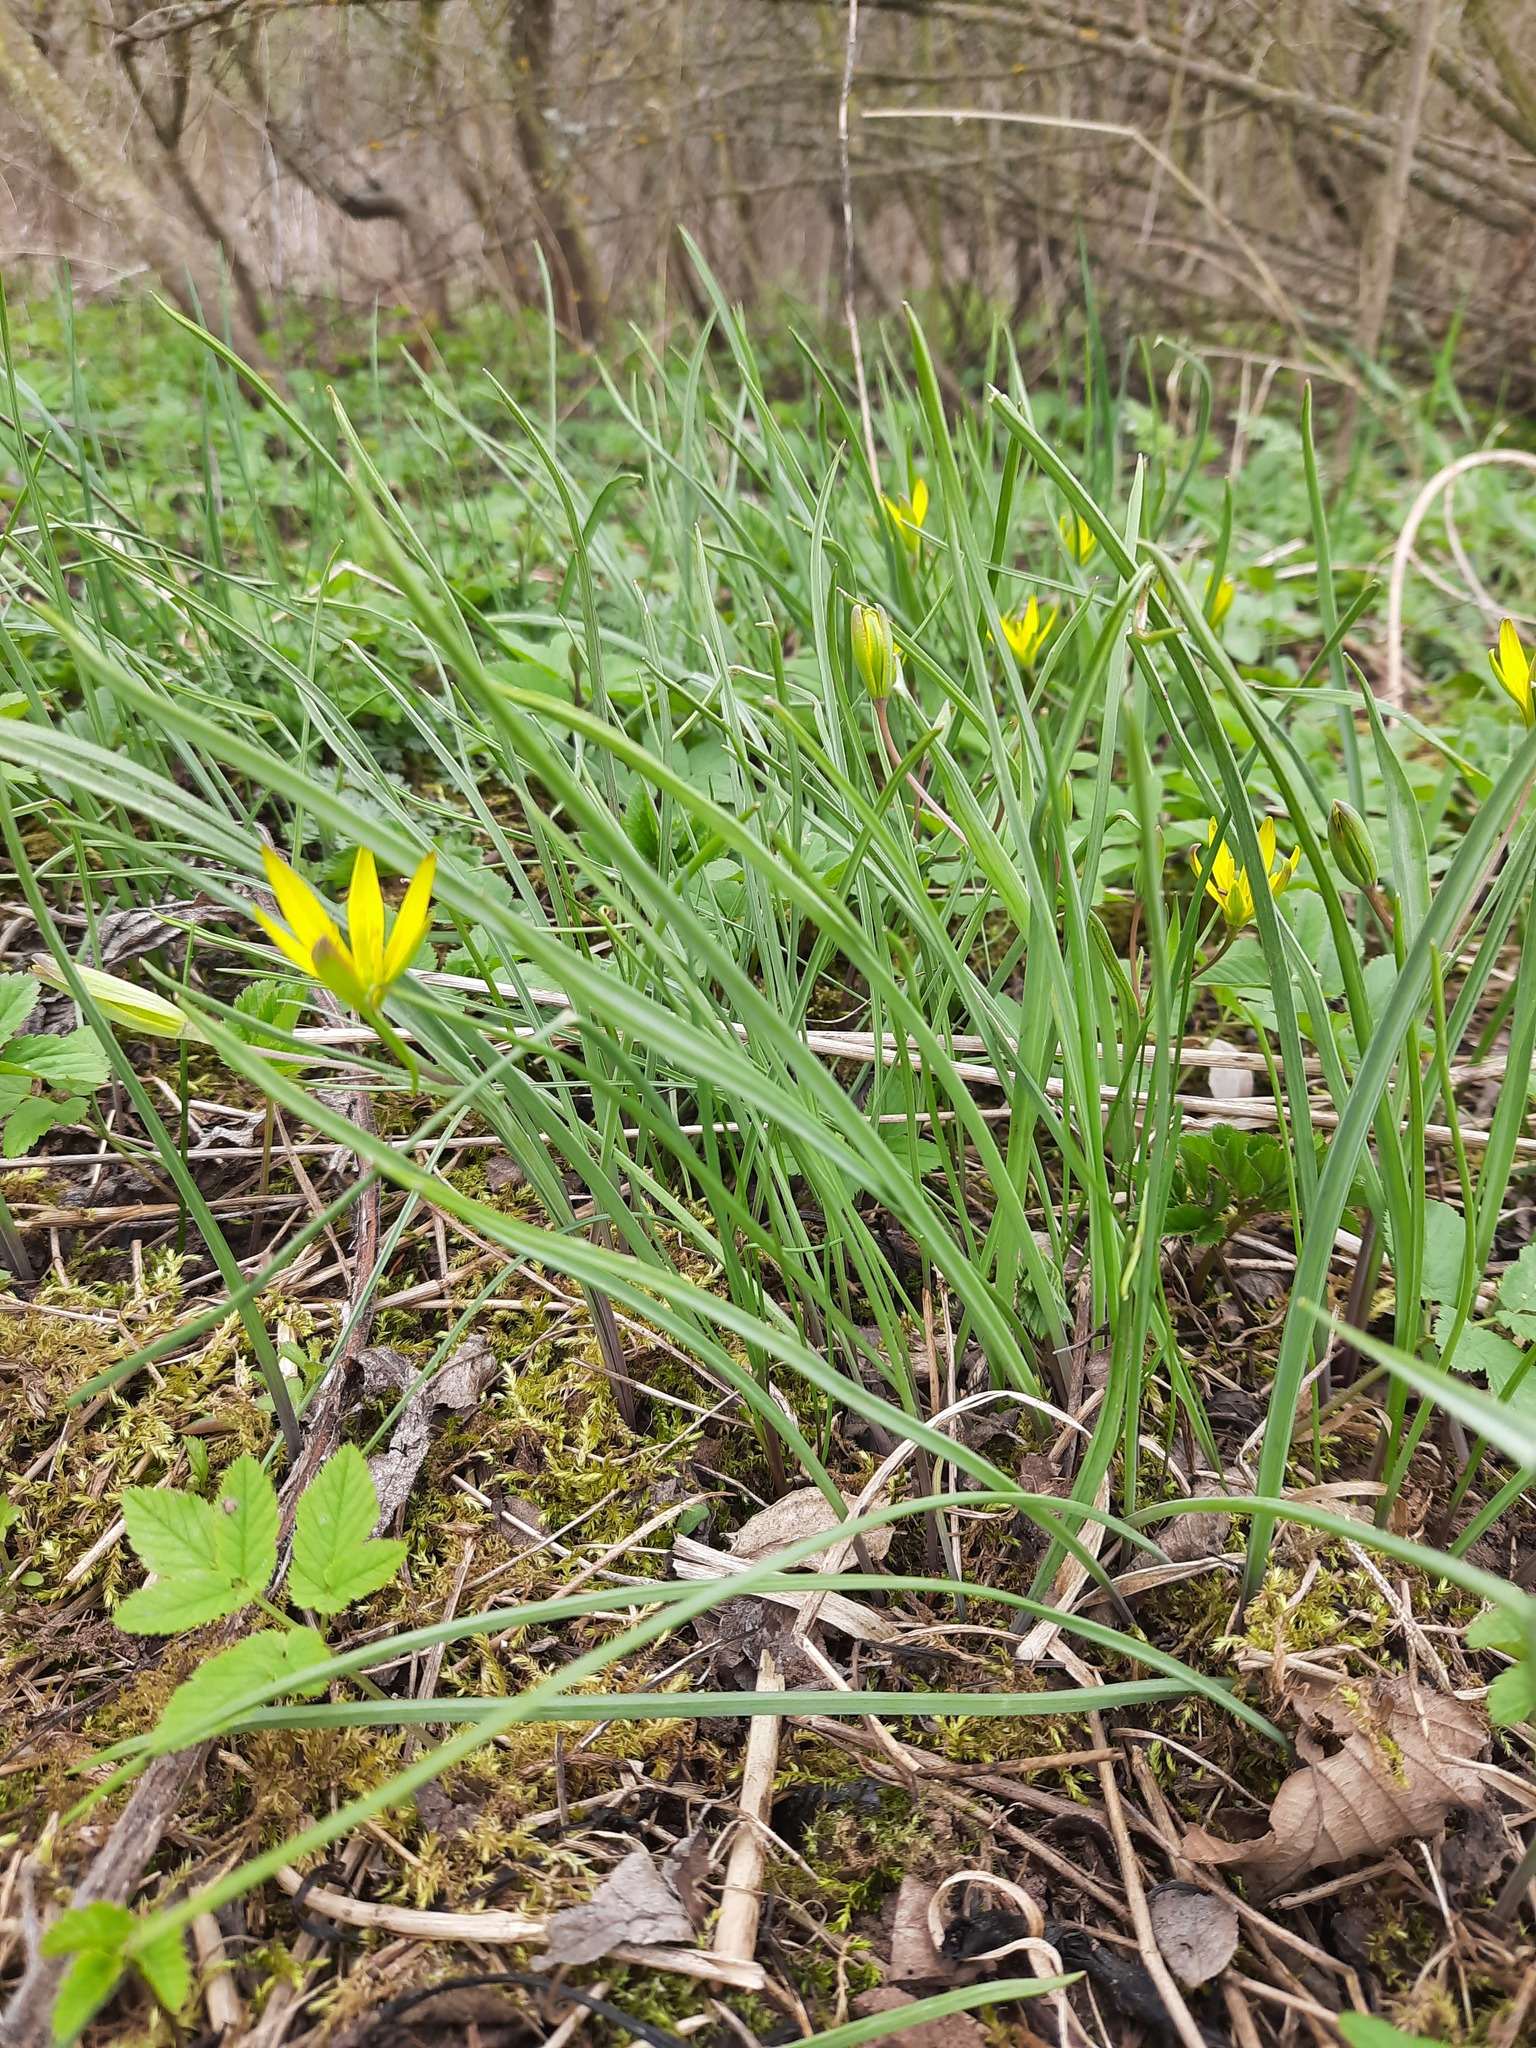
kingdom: Plantae
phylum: Tracheophyta
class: Liliopsida
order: Liliales
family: Liliaceae
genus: Gagea
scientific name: Gagea pratensis
